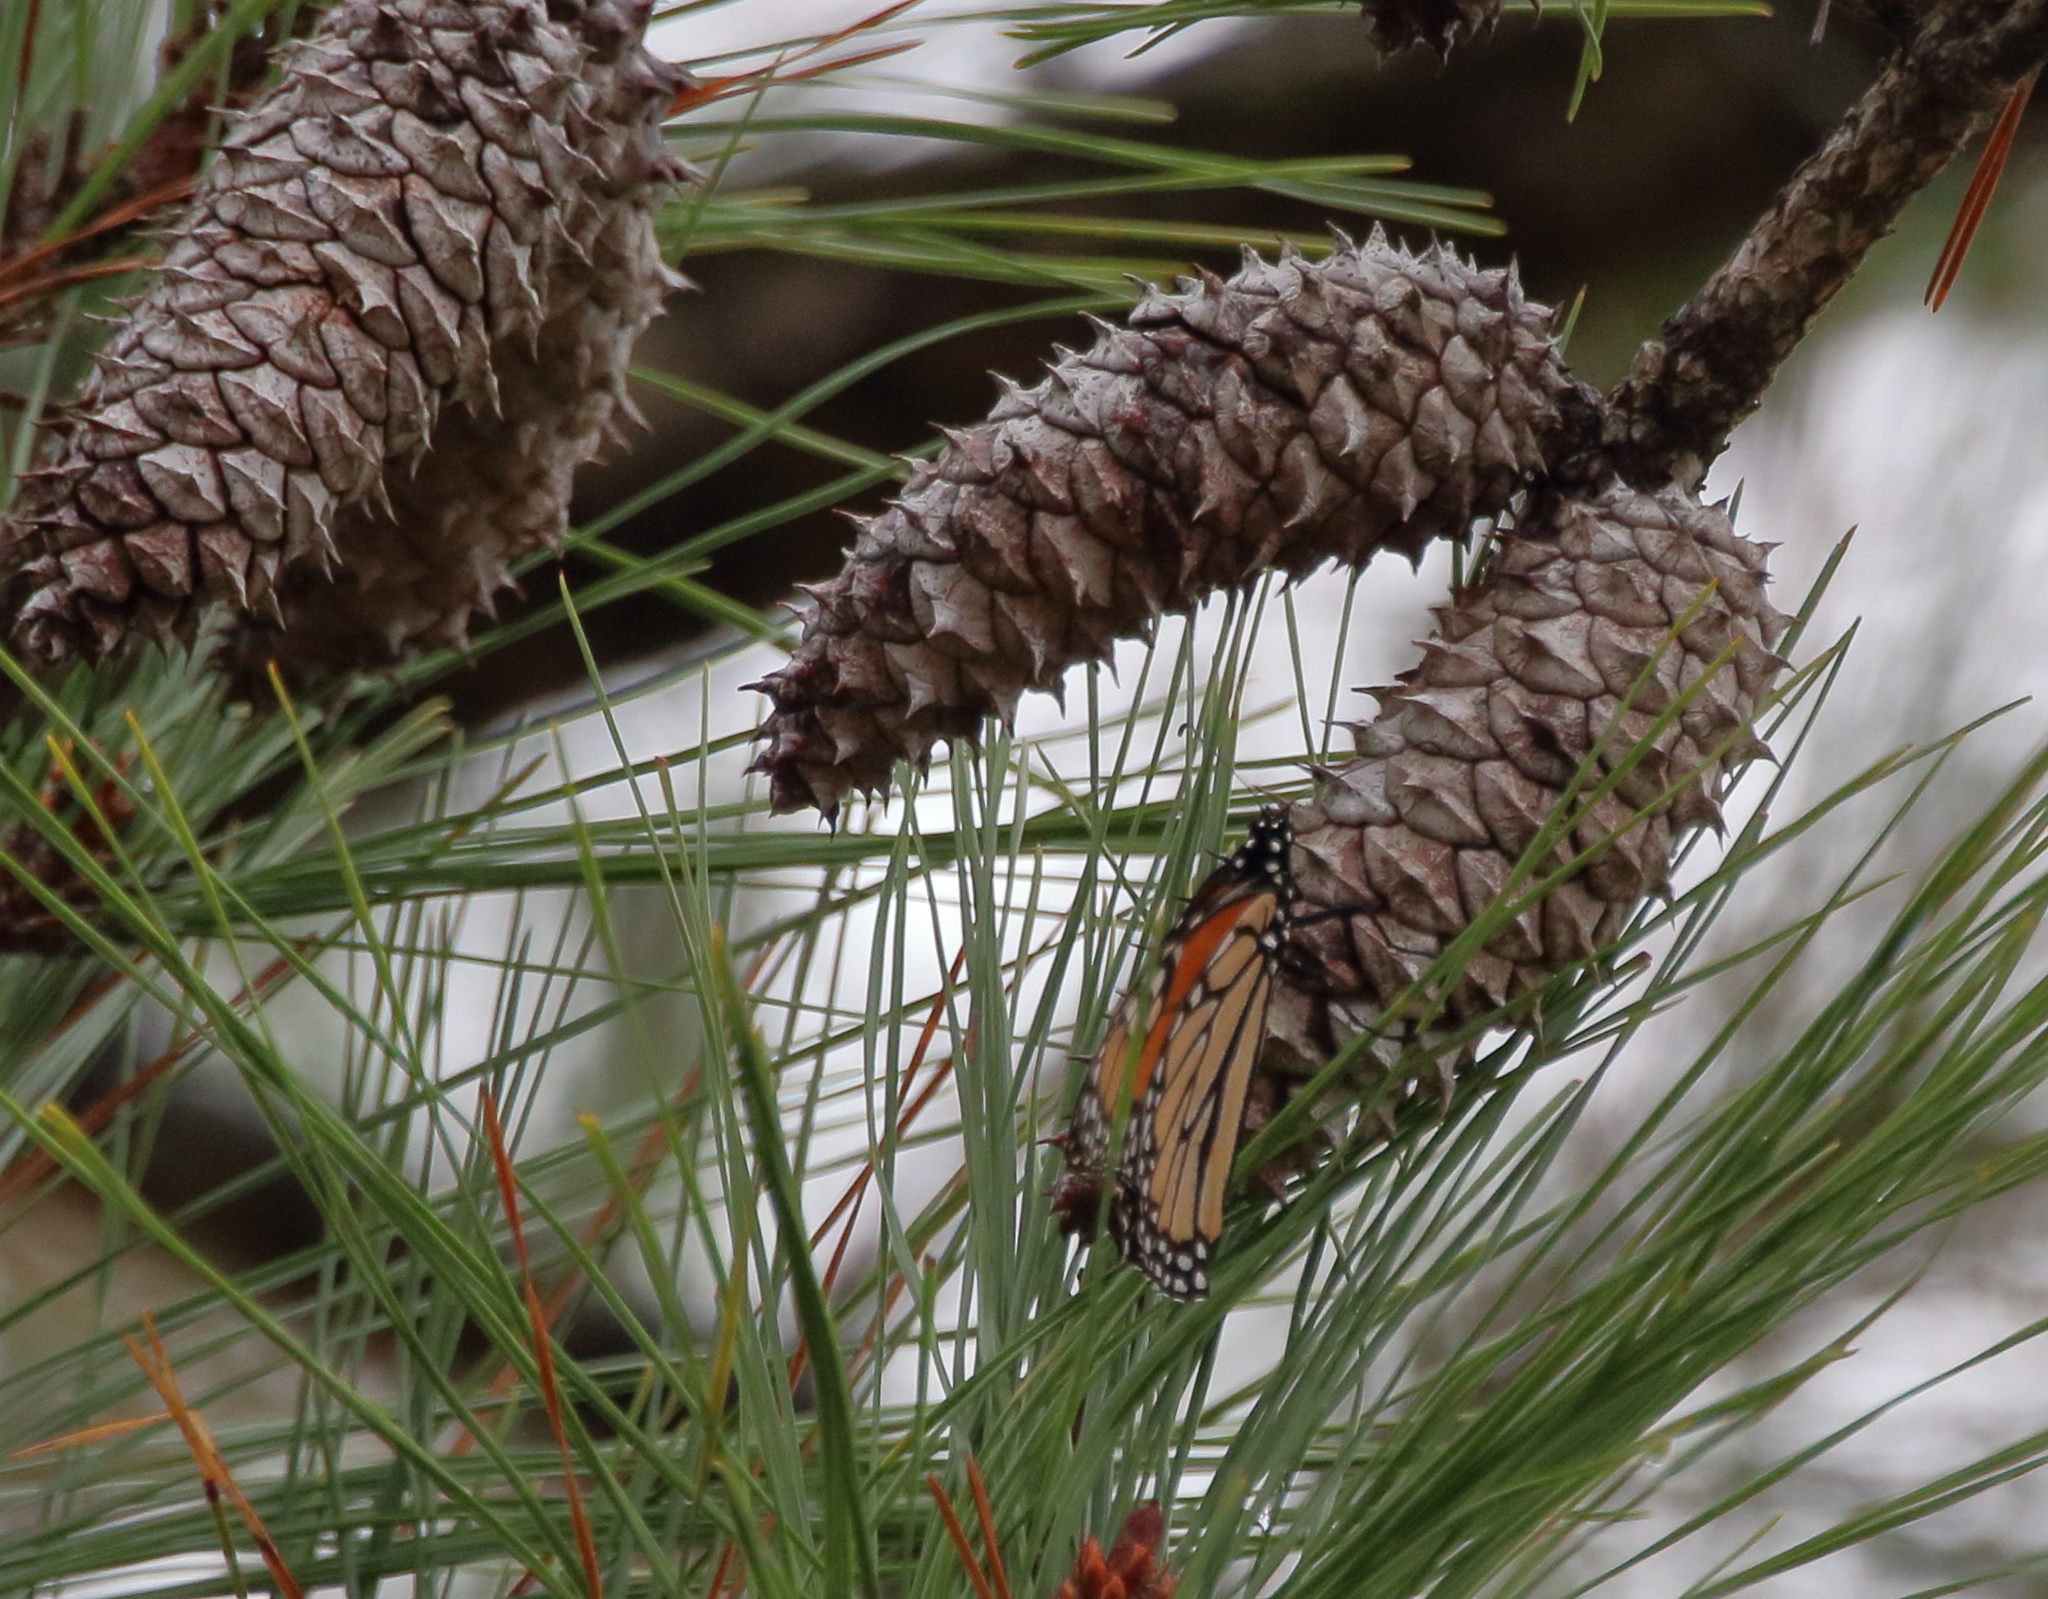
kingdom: Animalia
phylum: Arthropoda
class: Insecta
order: Lepidoptera
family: Nymphalidae
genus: Danaus
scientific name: Danaus plexippus
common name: Monarch
